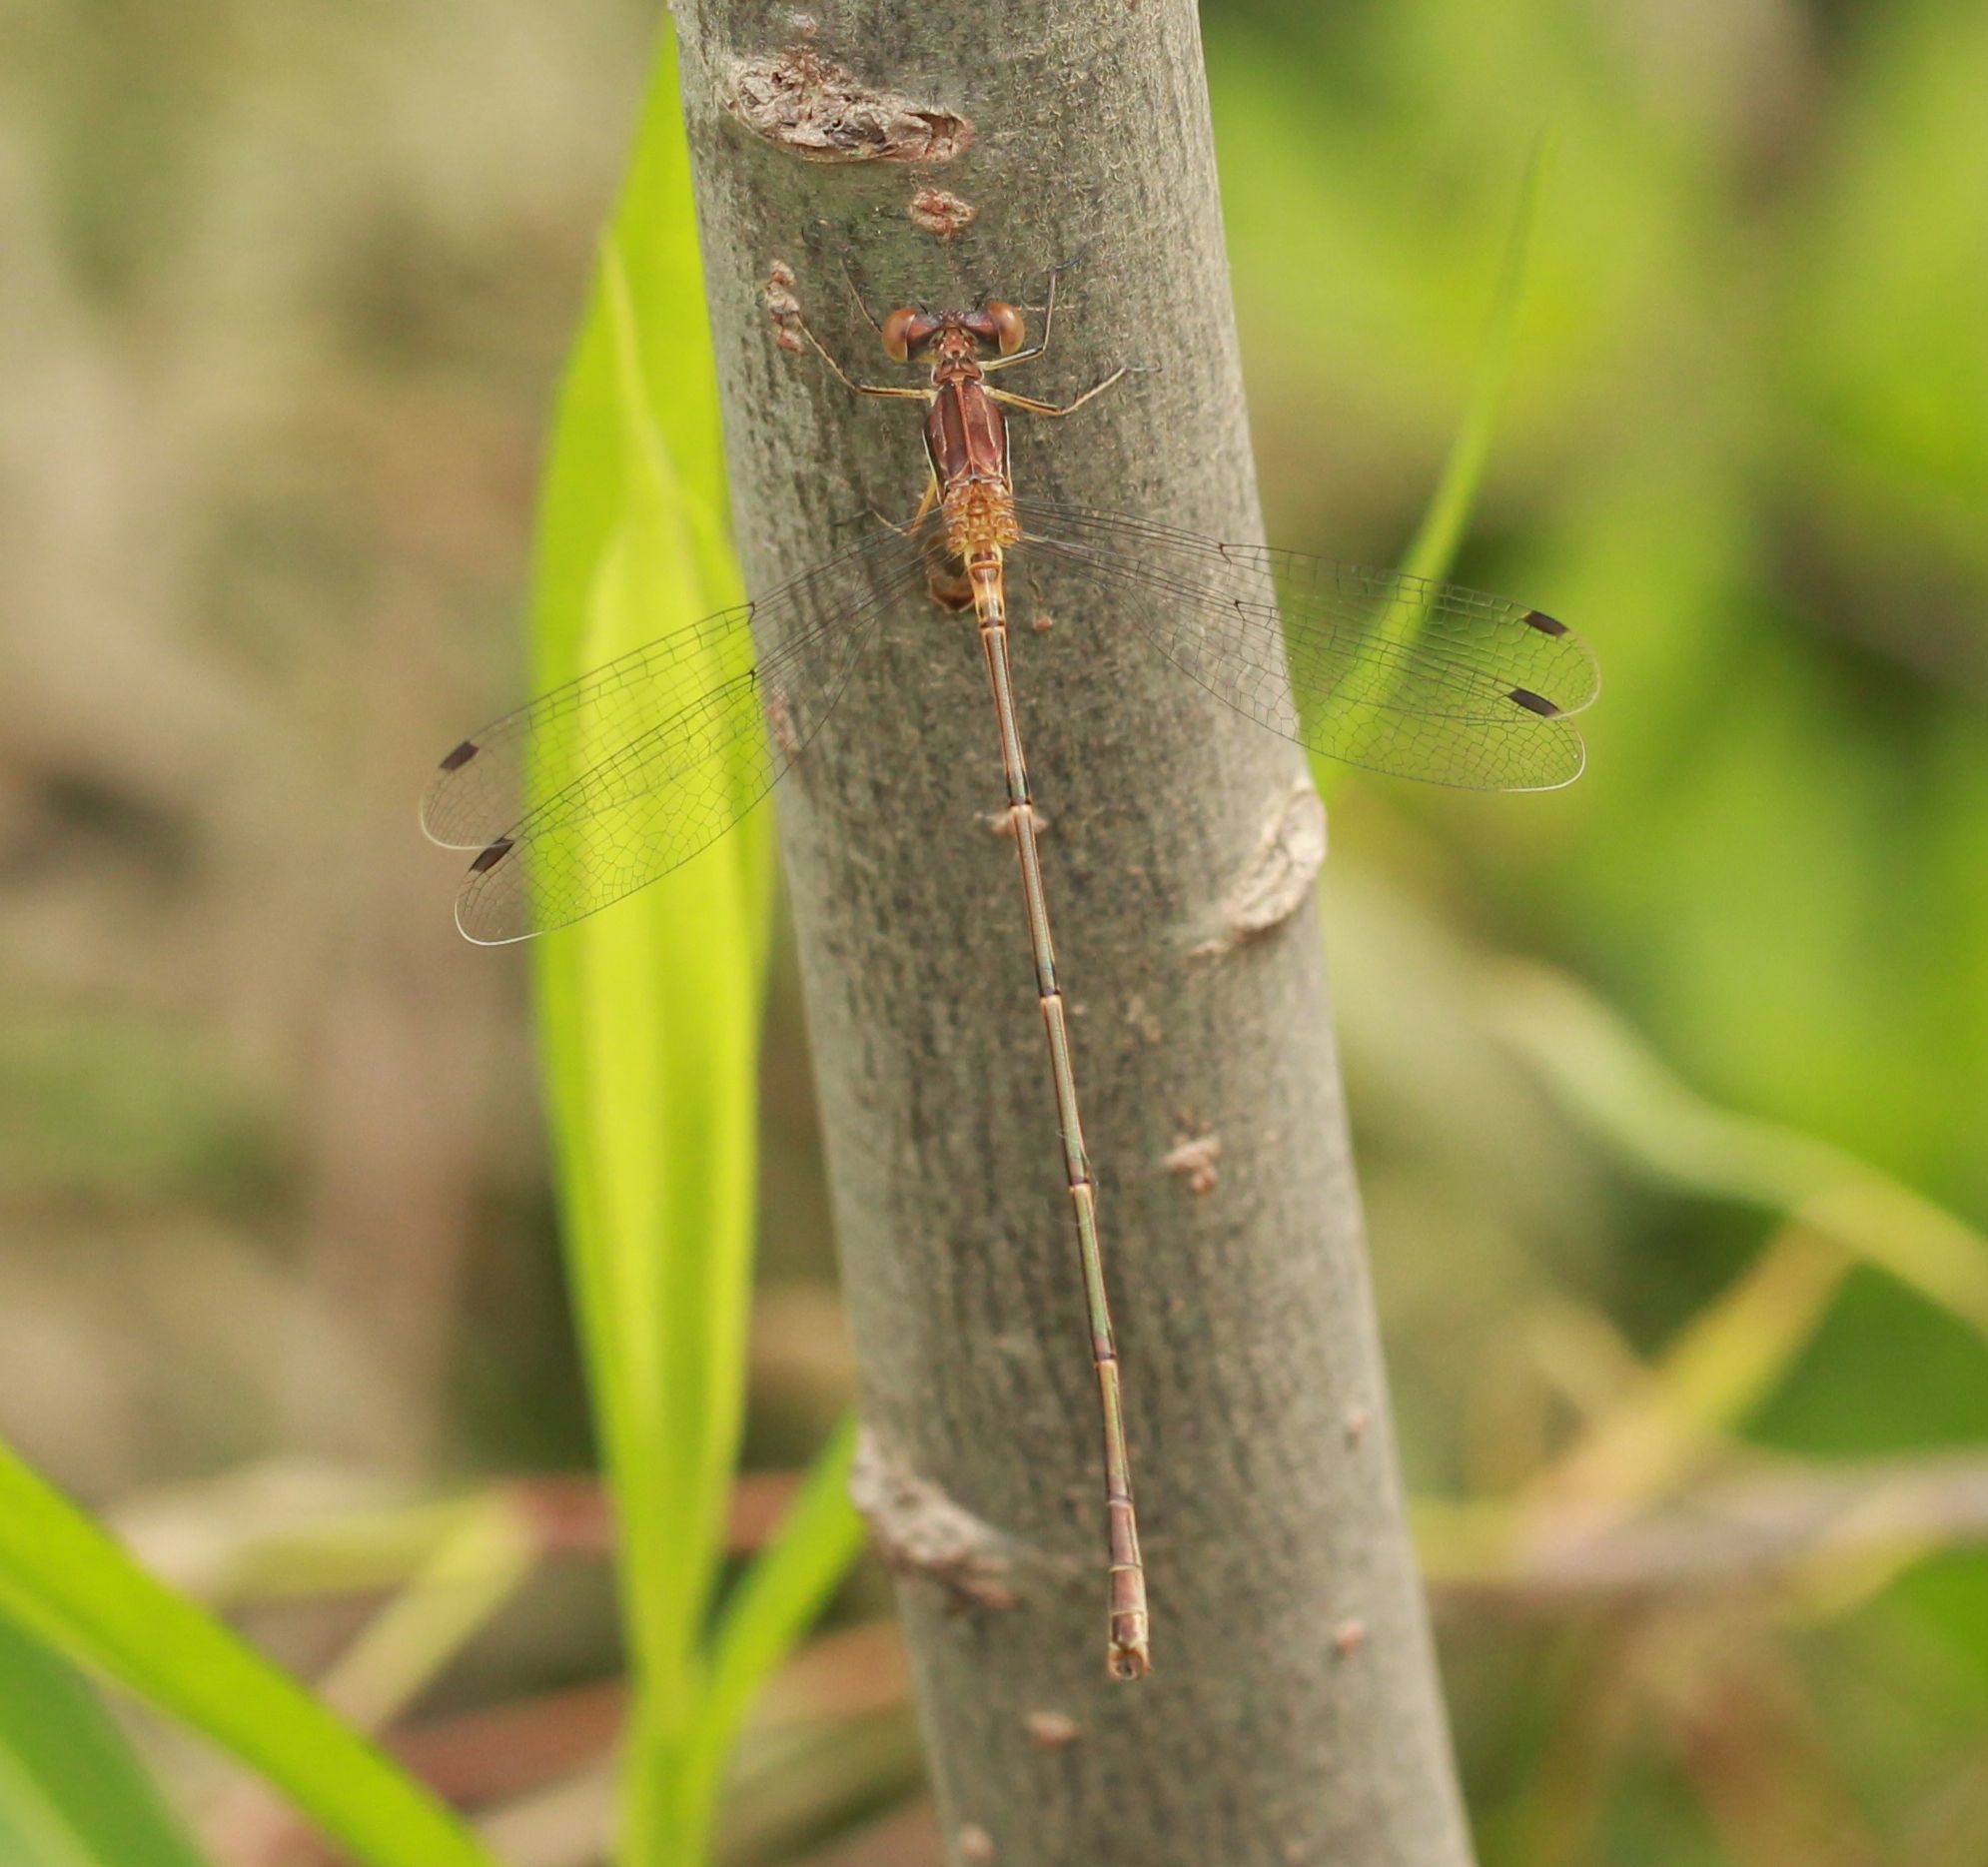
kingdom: Animalia
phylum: Arthropoda
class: Insecta
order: Odonata
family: Lestidae
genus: Lestes
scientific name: Lestes rectangularis
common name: Slender spreadwing
